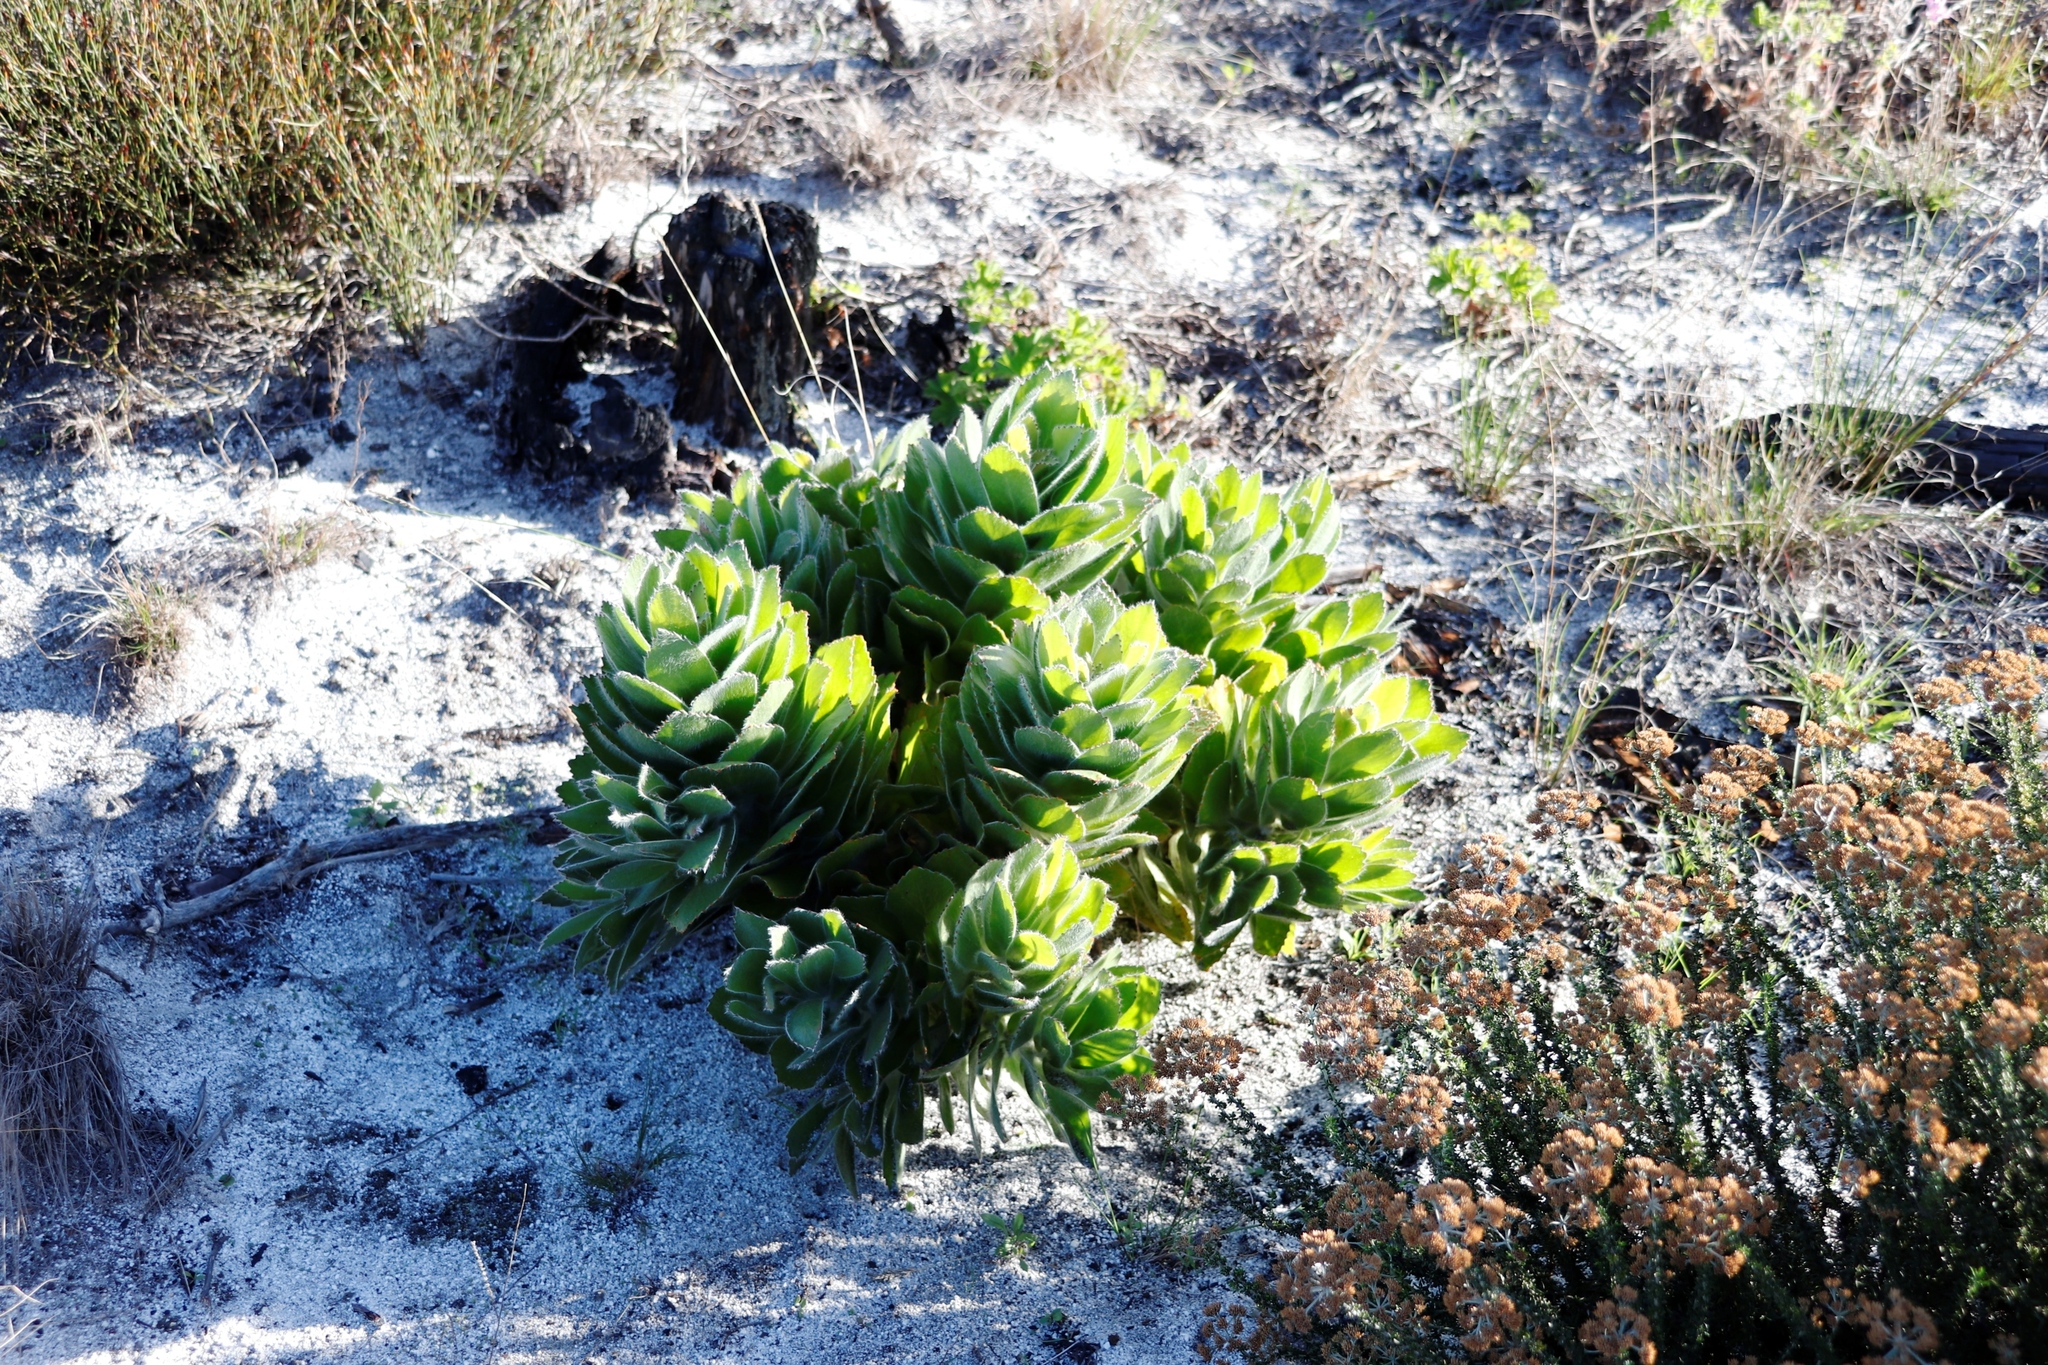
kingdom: Plantae
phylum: Tracheophyta
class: Magnoliopsida
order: Proteales
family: Proteaceae
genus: Leucospermum
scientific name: Leucospermum conocarpodendron
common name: Tree pincushion
